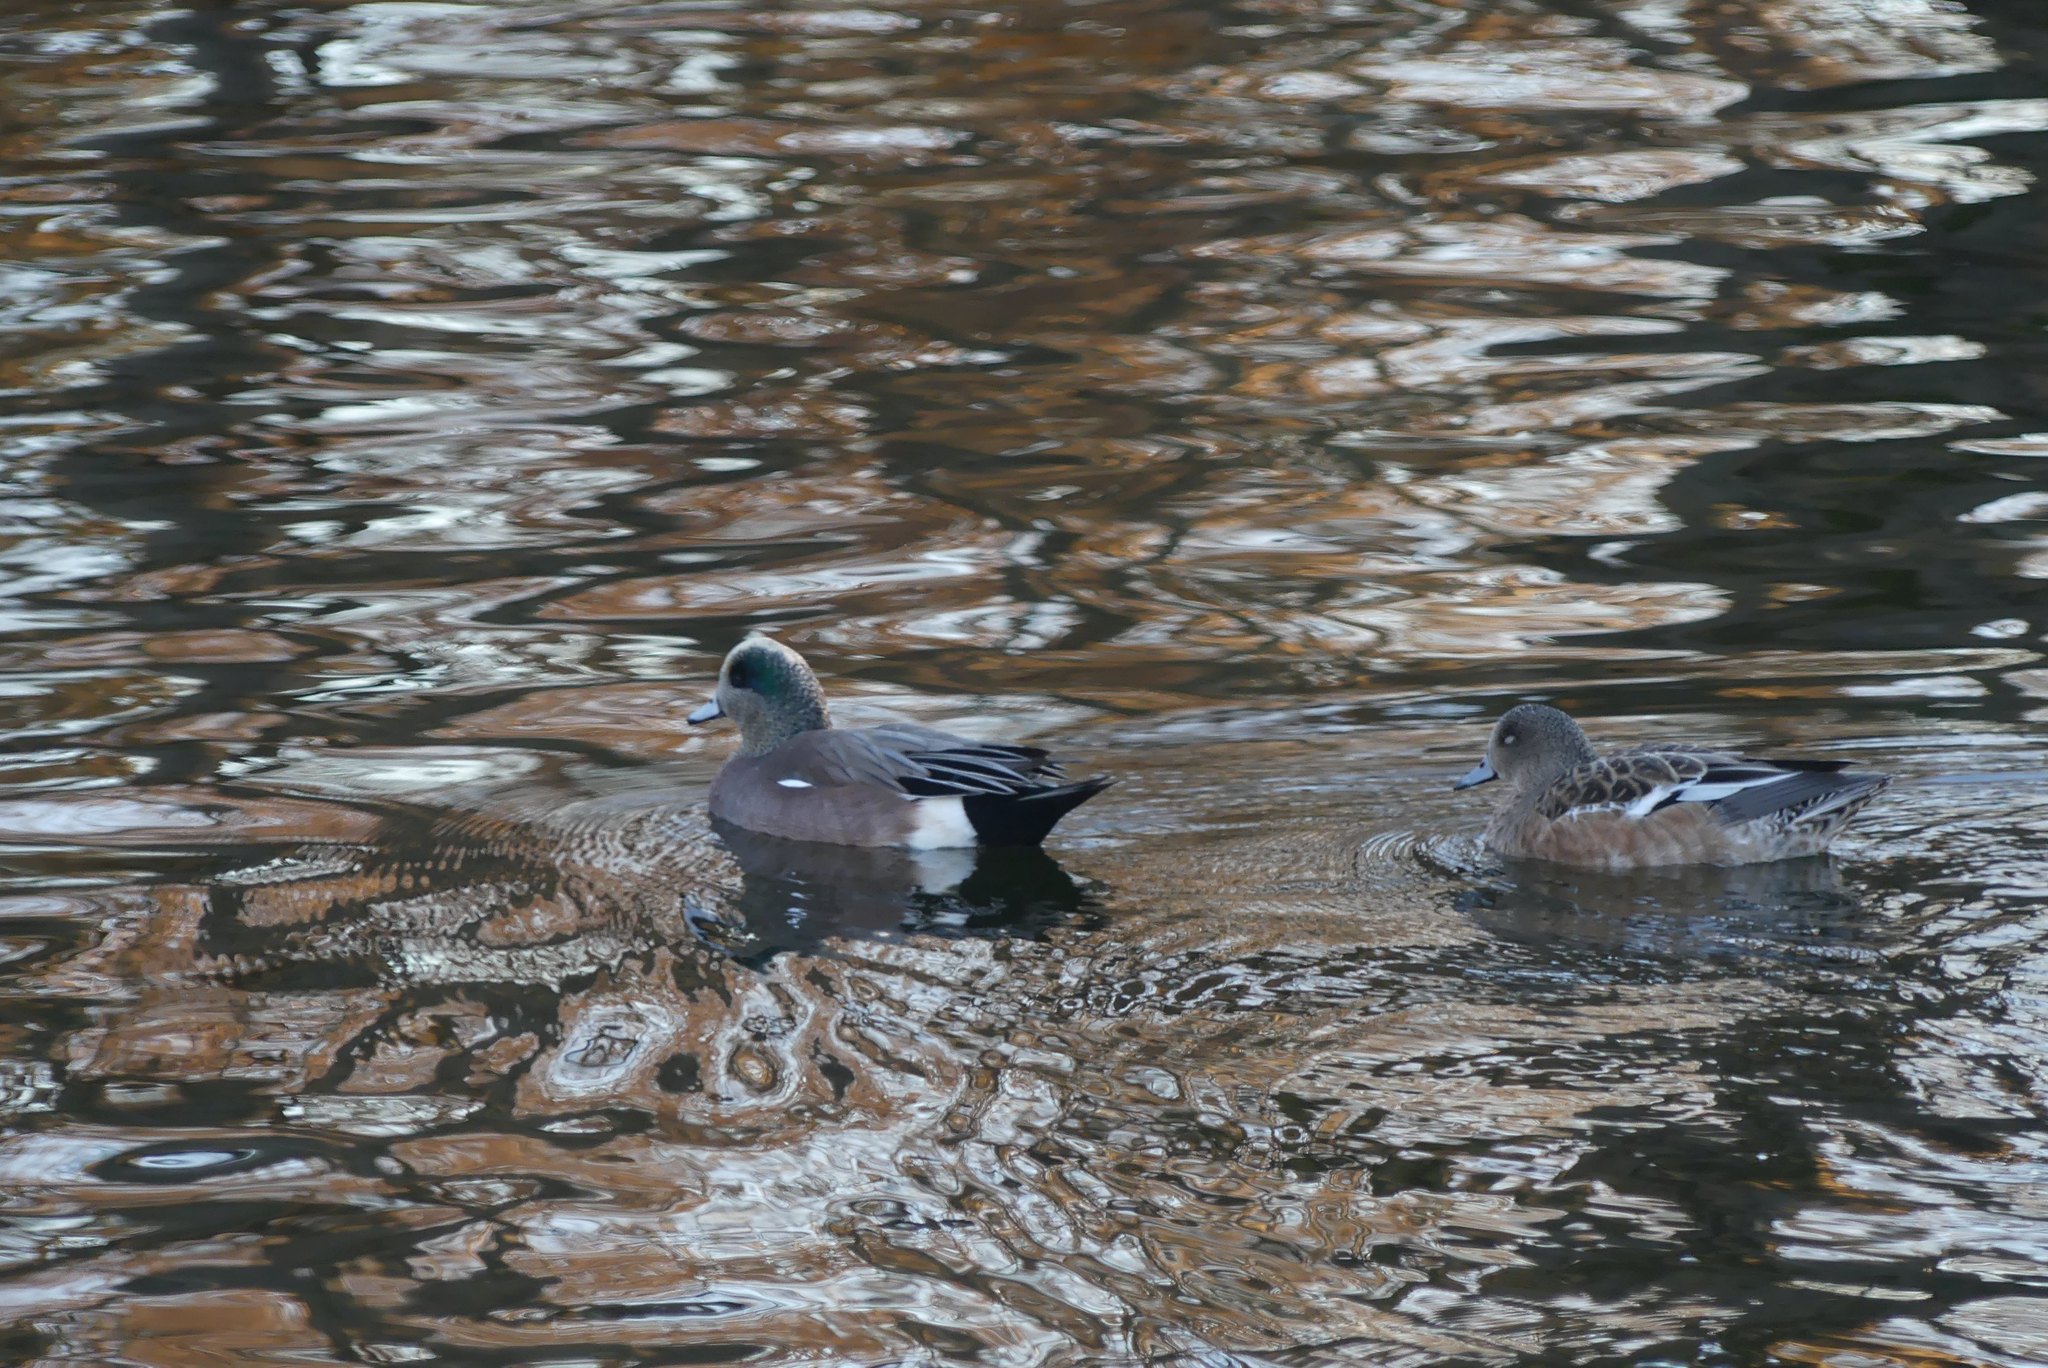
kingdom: Animalia
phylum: Chordata
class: Aves
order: Anseriformes
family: Anatidae
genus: Mareca
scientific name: Mareca americana
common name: American wigeon
